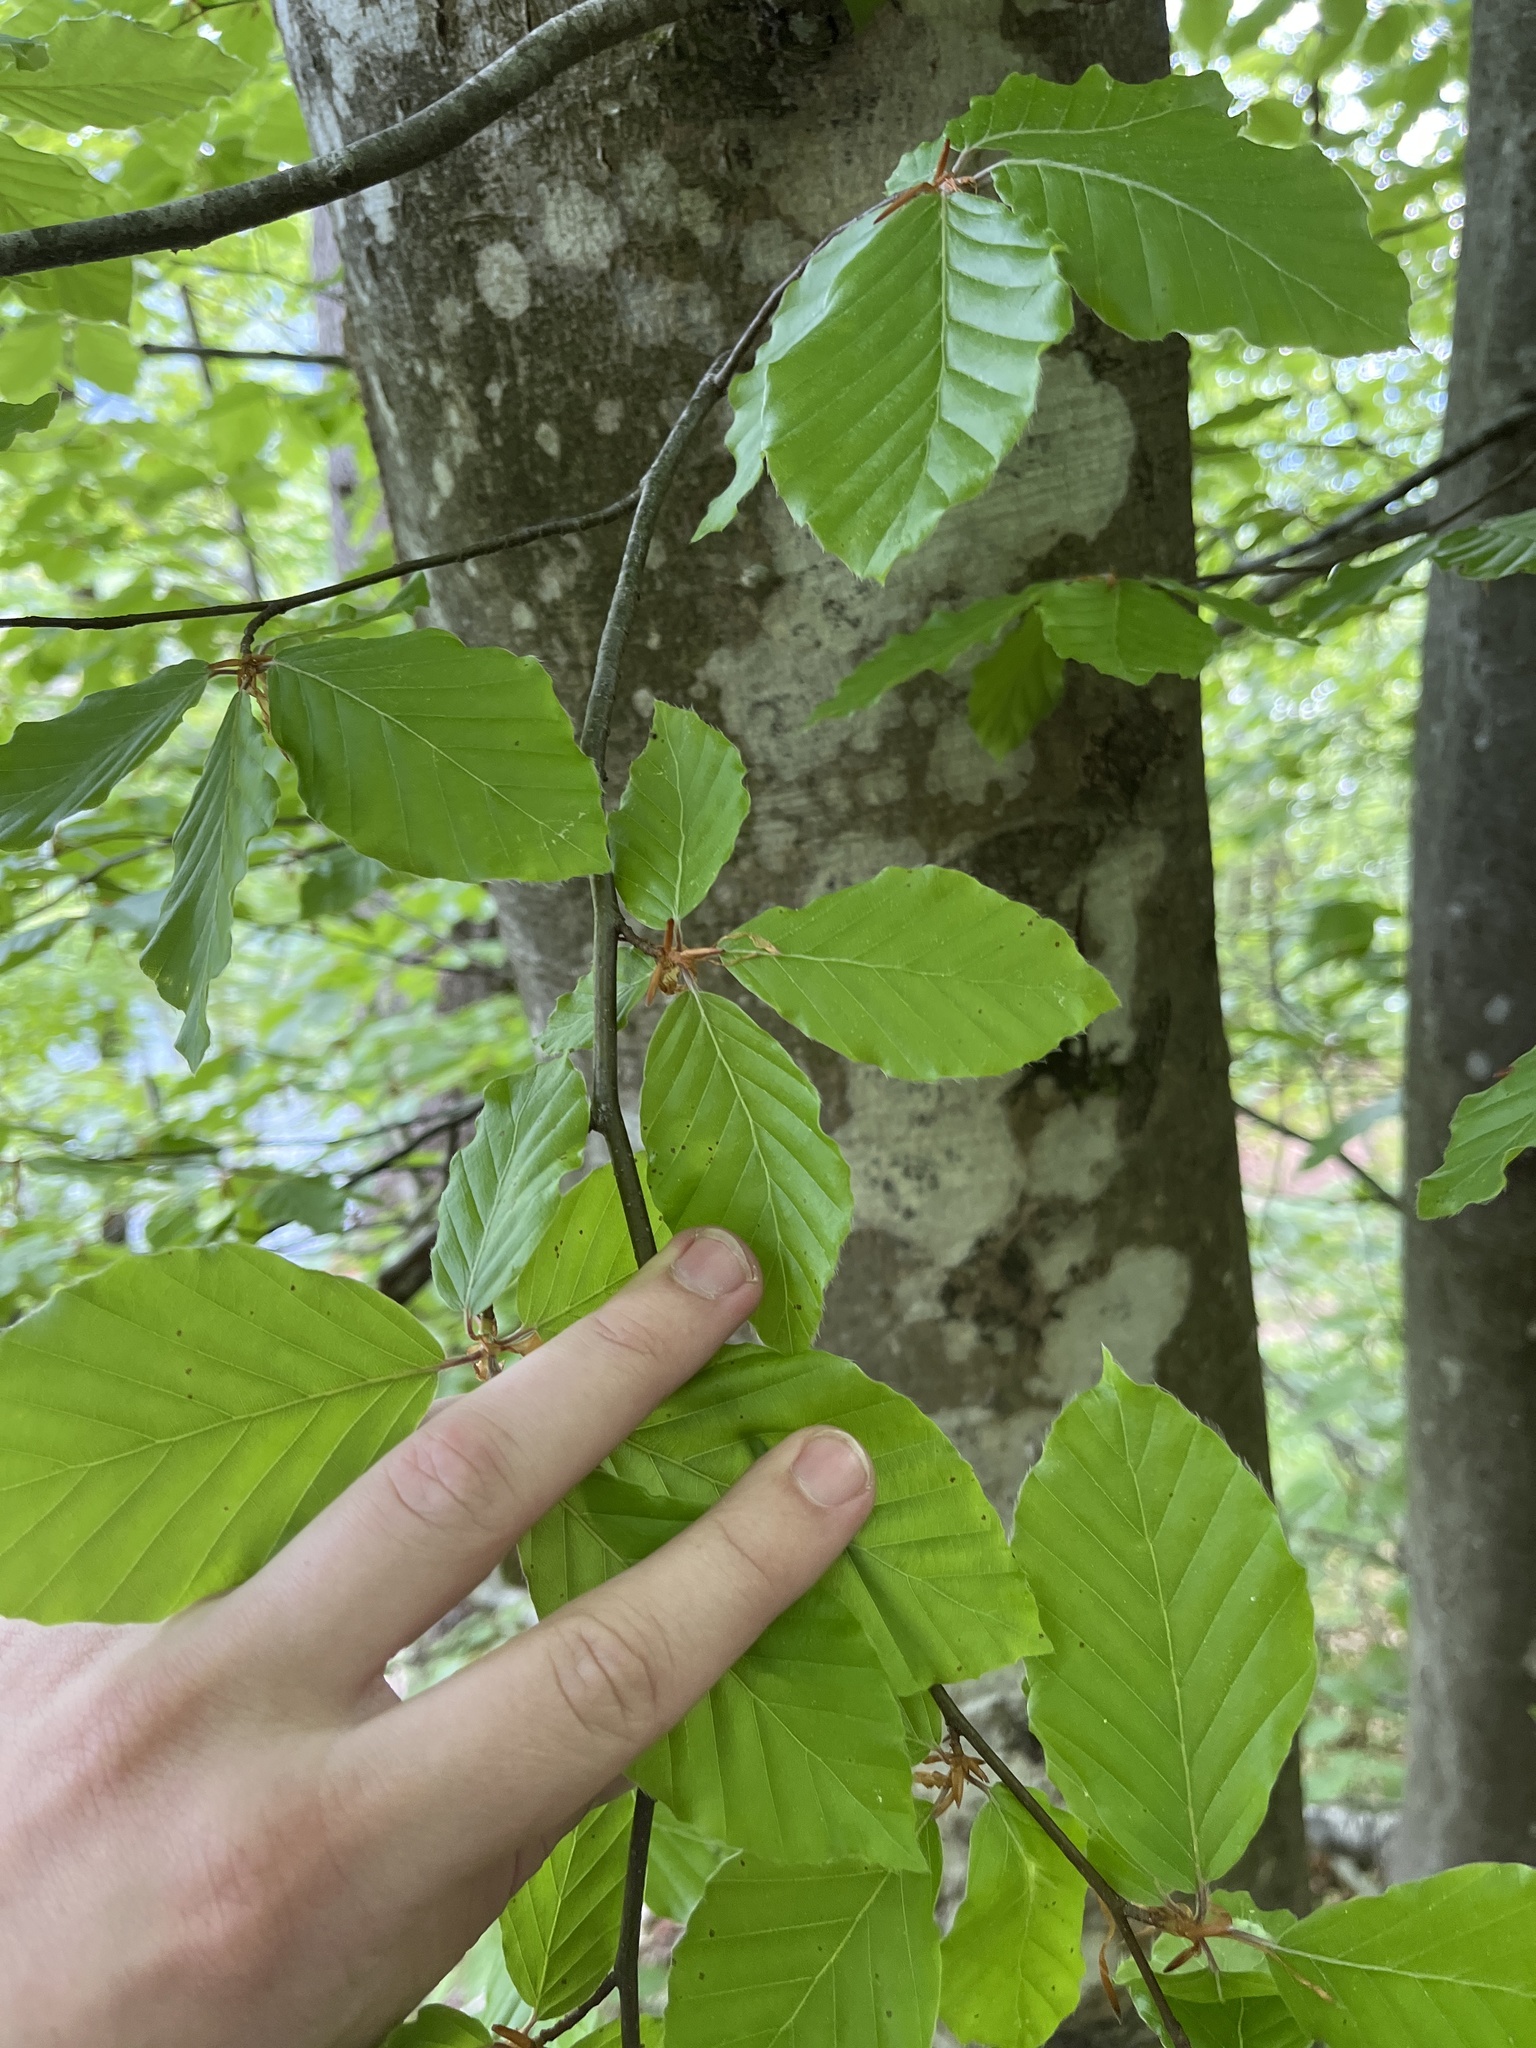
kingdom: Plantae
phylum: Tracheophyta
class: Magnoliopsida
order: Fagales
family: Fagaceae
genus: Fagus
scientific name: Fagus sylvatica
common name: Beech
